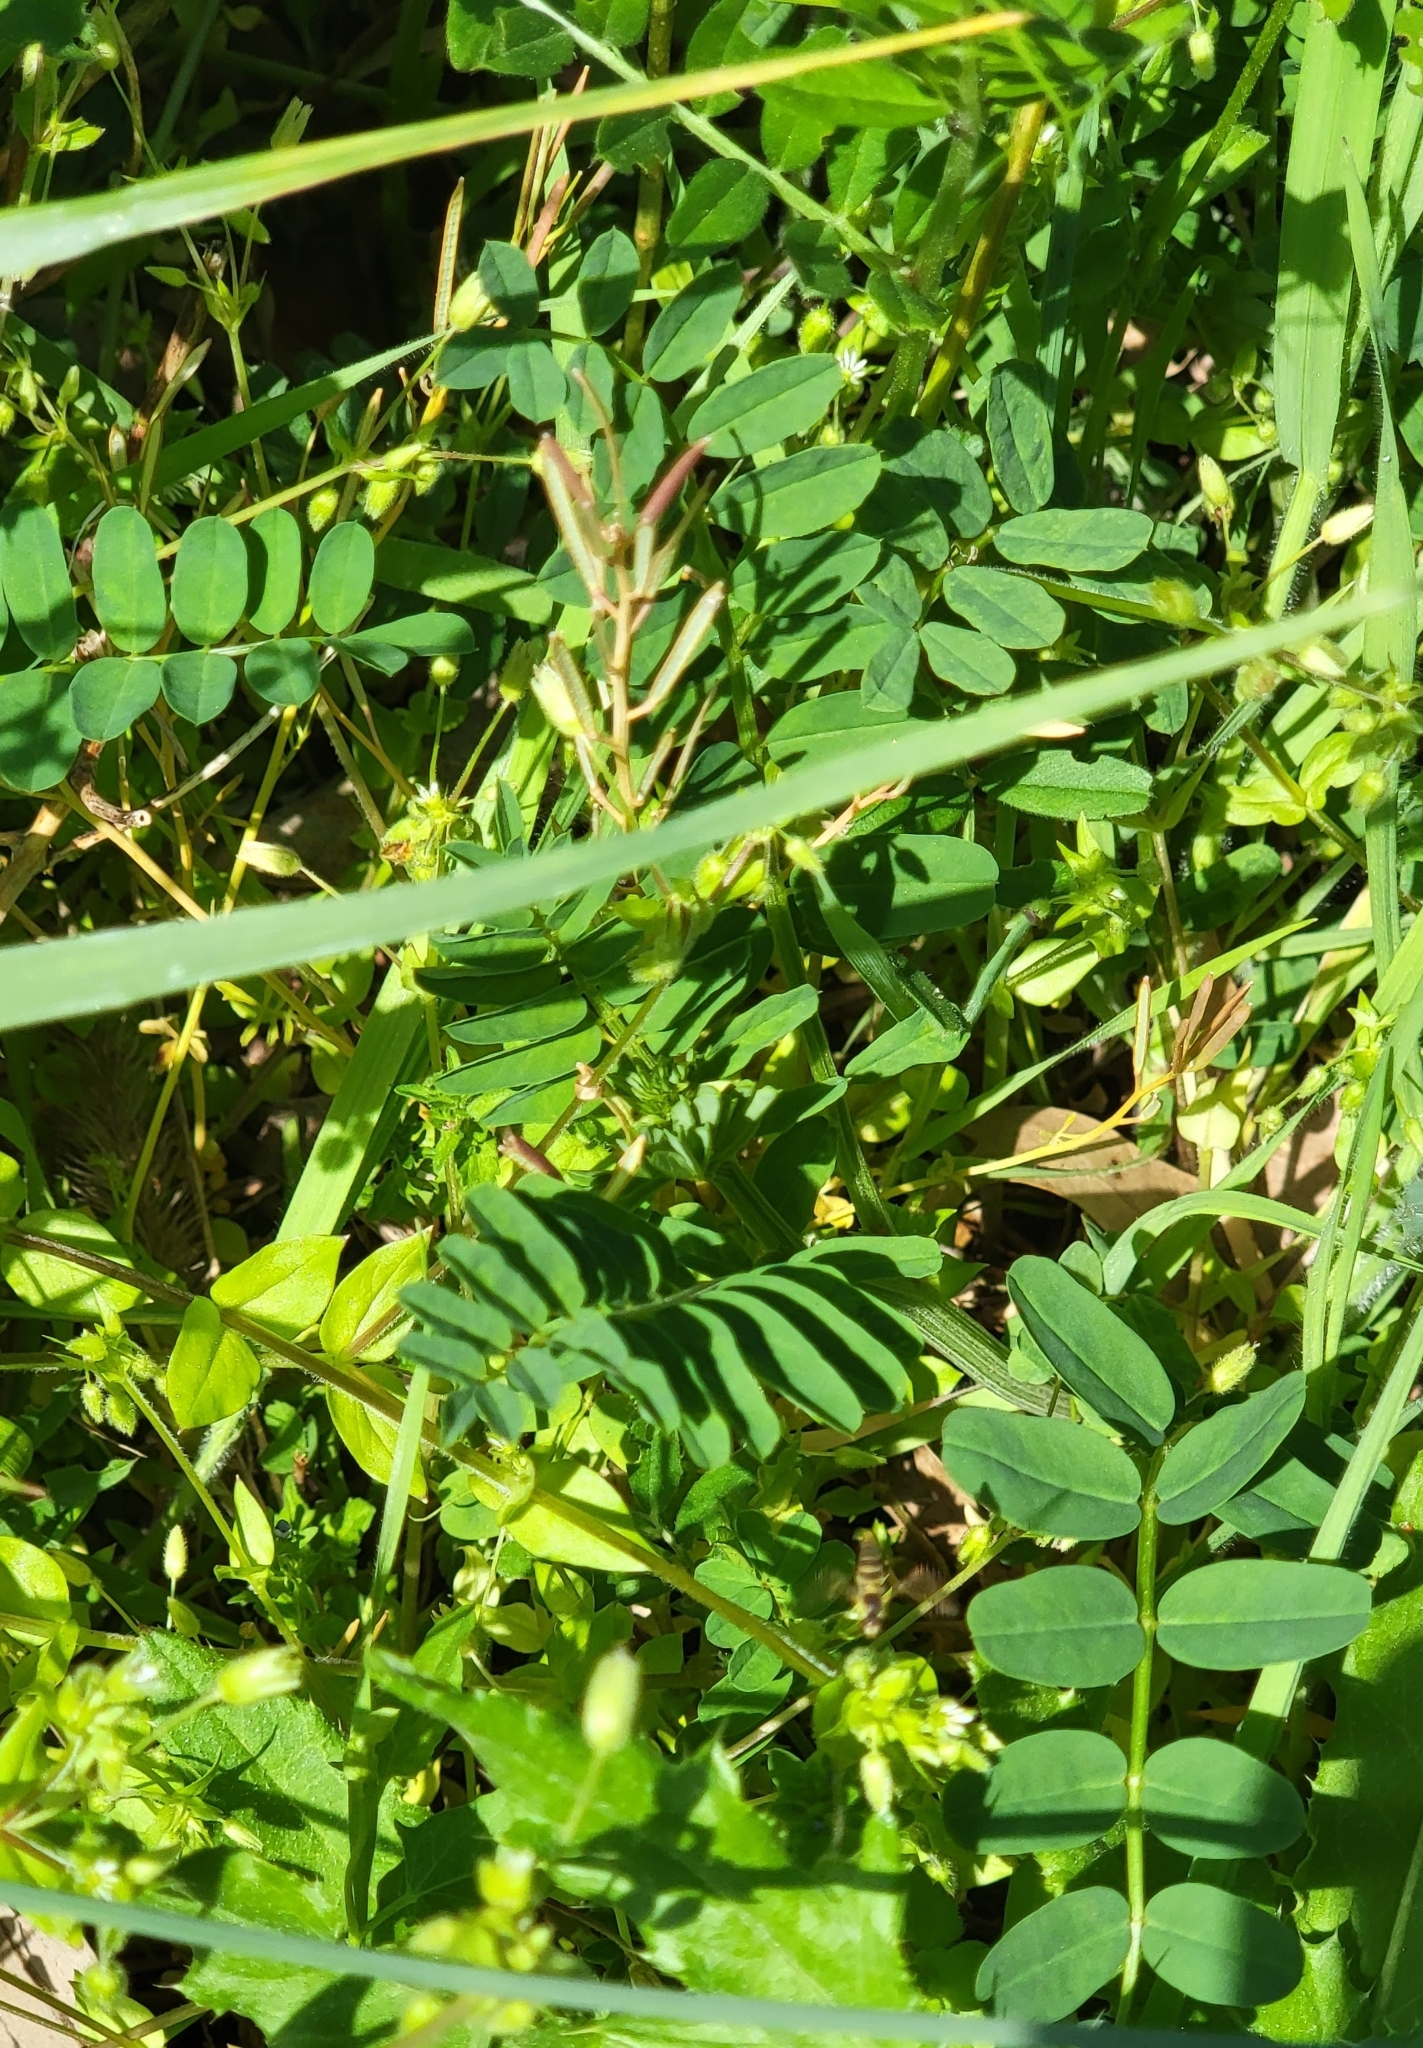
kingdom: Plantae
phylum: Tracheophyta
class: Magnoliopsida
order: Fabales
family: Fabaceae
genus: Coronilla
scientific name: Coronilla varia
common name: Crownvetch
